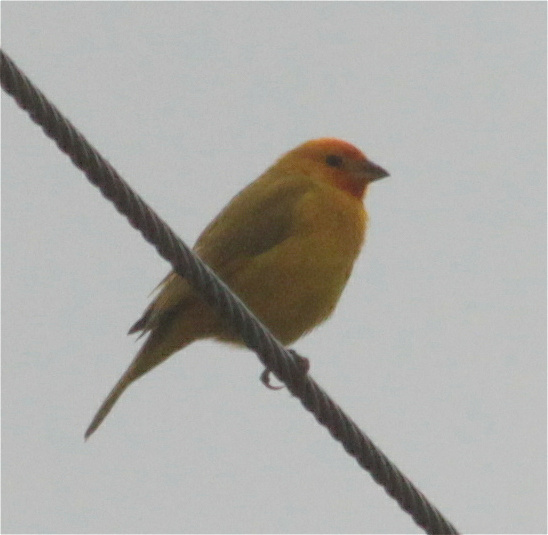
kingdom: Animalia
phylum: Chordata
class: Aves
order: Passeriformes
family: Thraupidae
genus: Sicalis
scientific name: Sicalis flaveola
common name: Saffron finch
